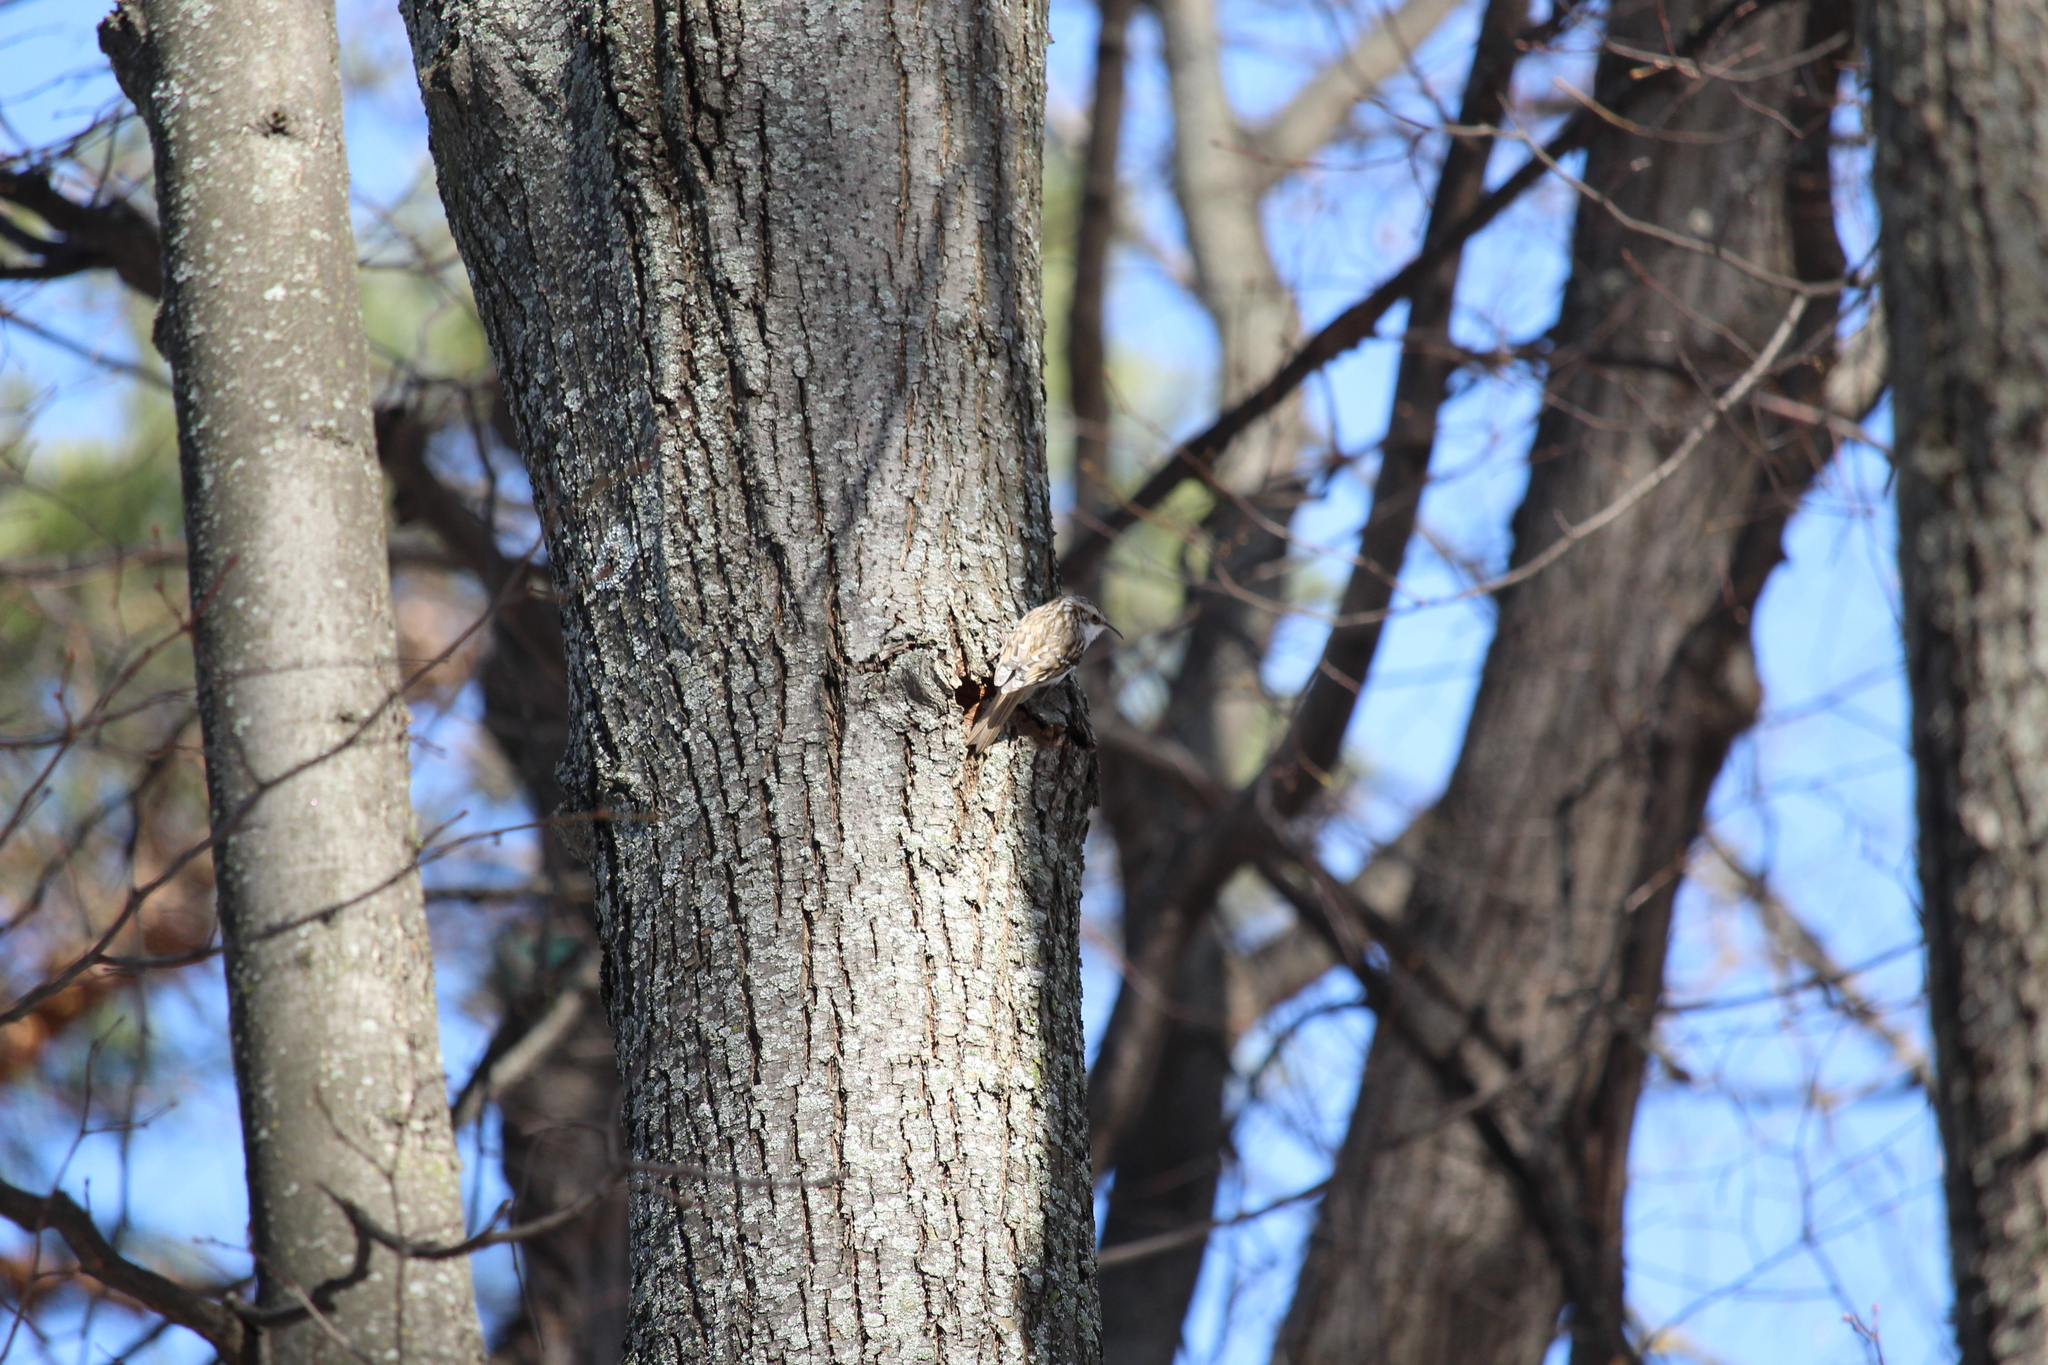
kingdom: Animalia
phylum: Chordata
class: Aves
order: Passeriformes
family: Certhiidae
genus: Certhia
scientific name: Certhia familiaris
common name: Eurasian treecreeper
